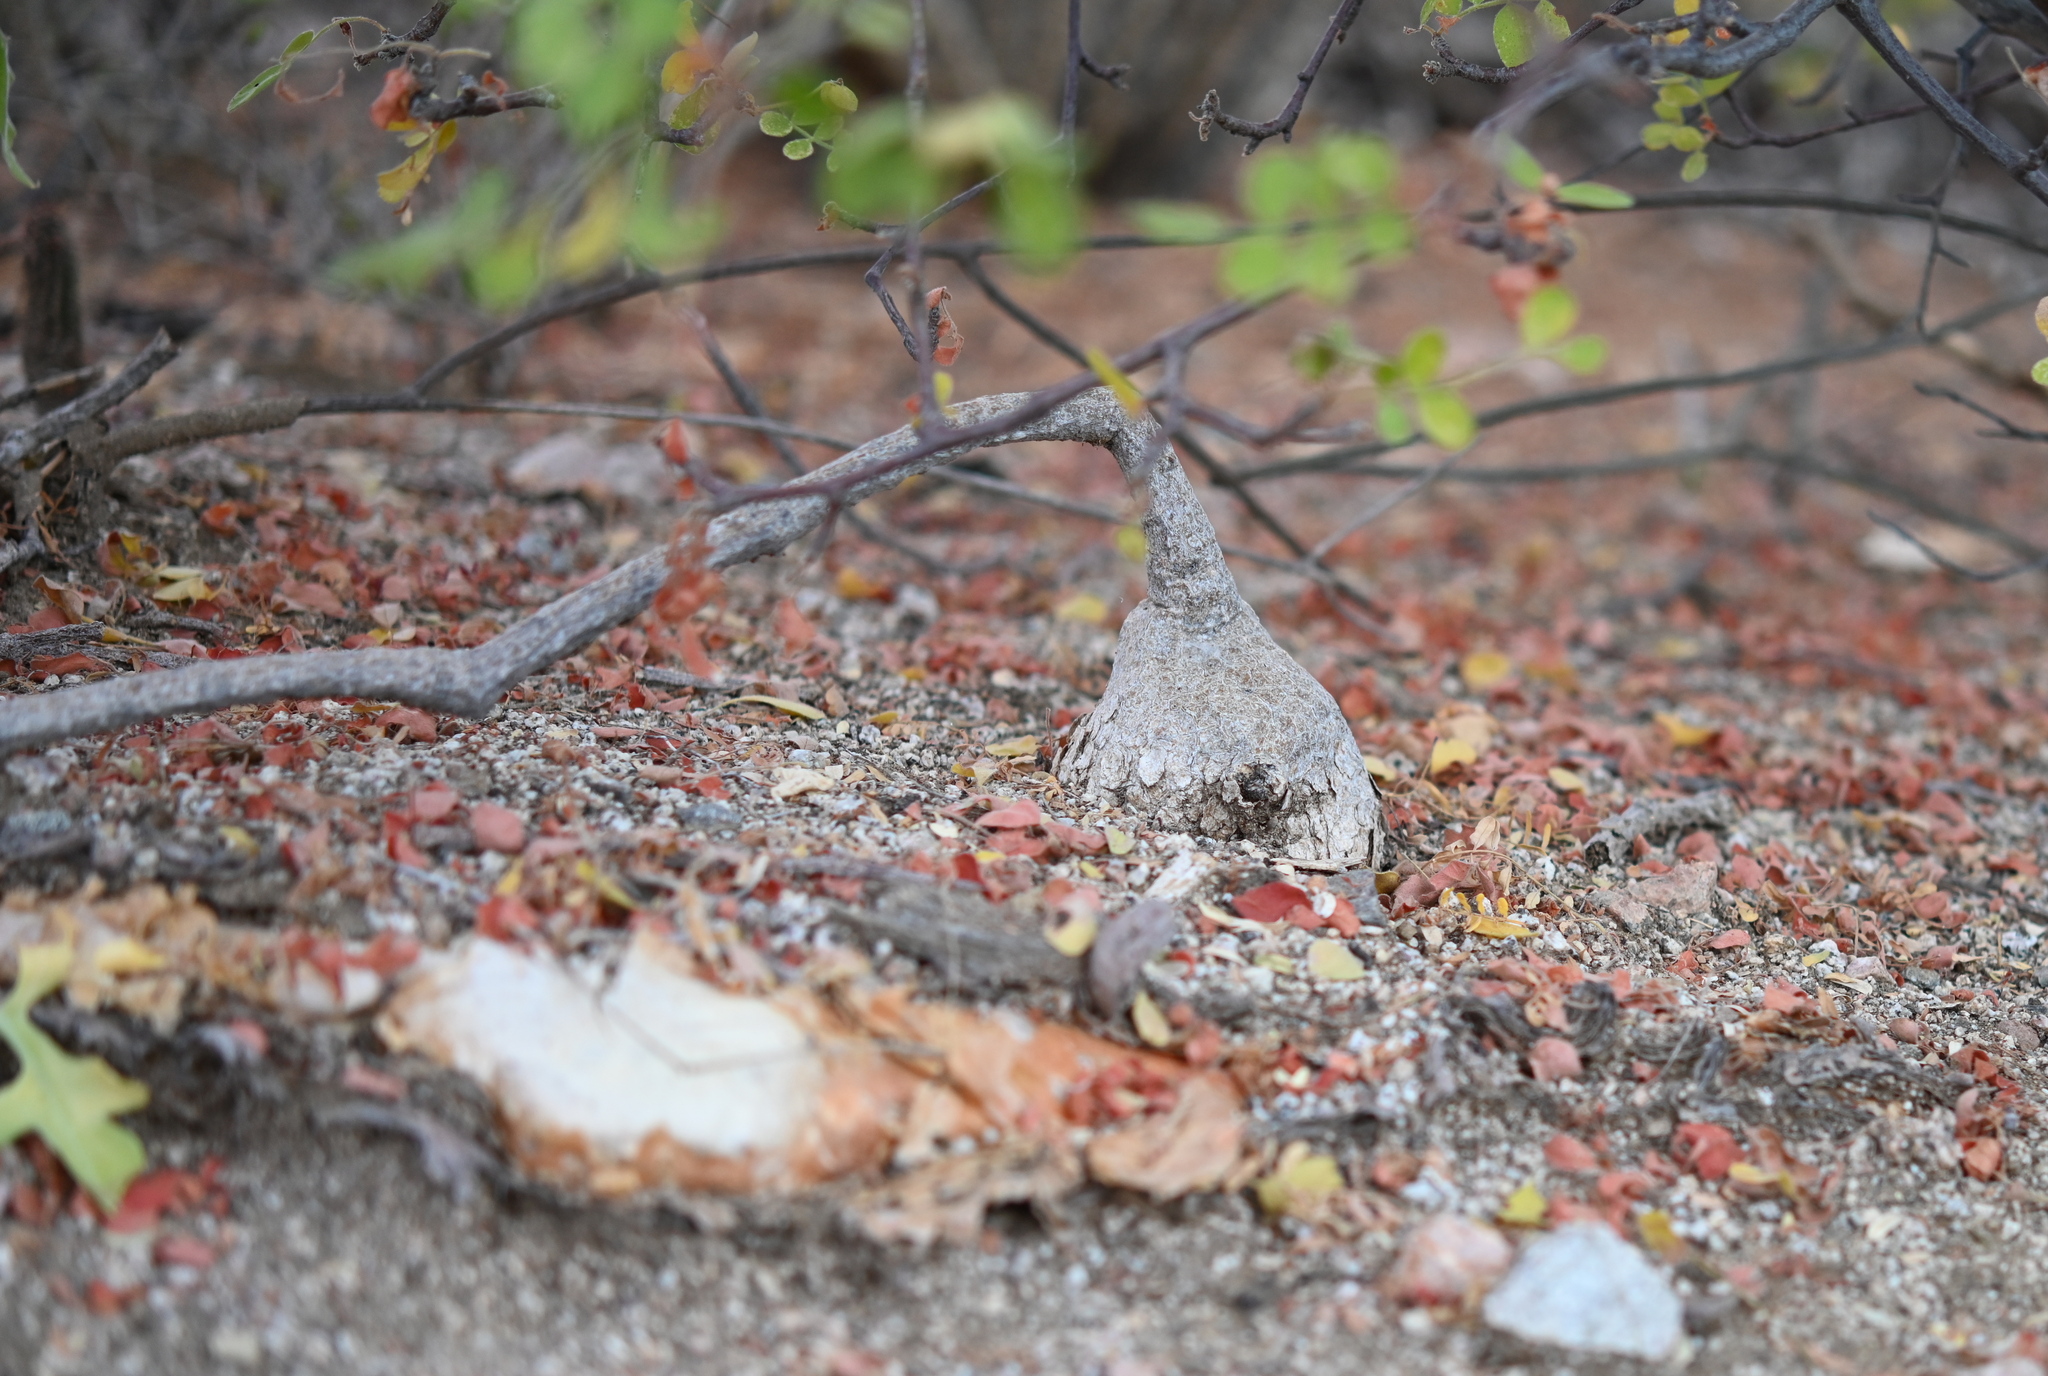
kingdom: Plantae
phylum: Tracheophyta
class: Magnoliopsida
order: Cucurbitales
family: Cucurbitaceae
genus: Ibervillea
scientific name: Ibervillea sonorae
